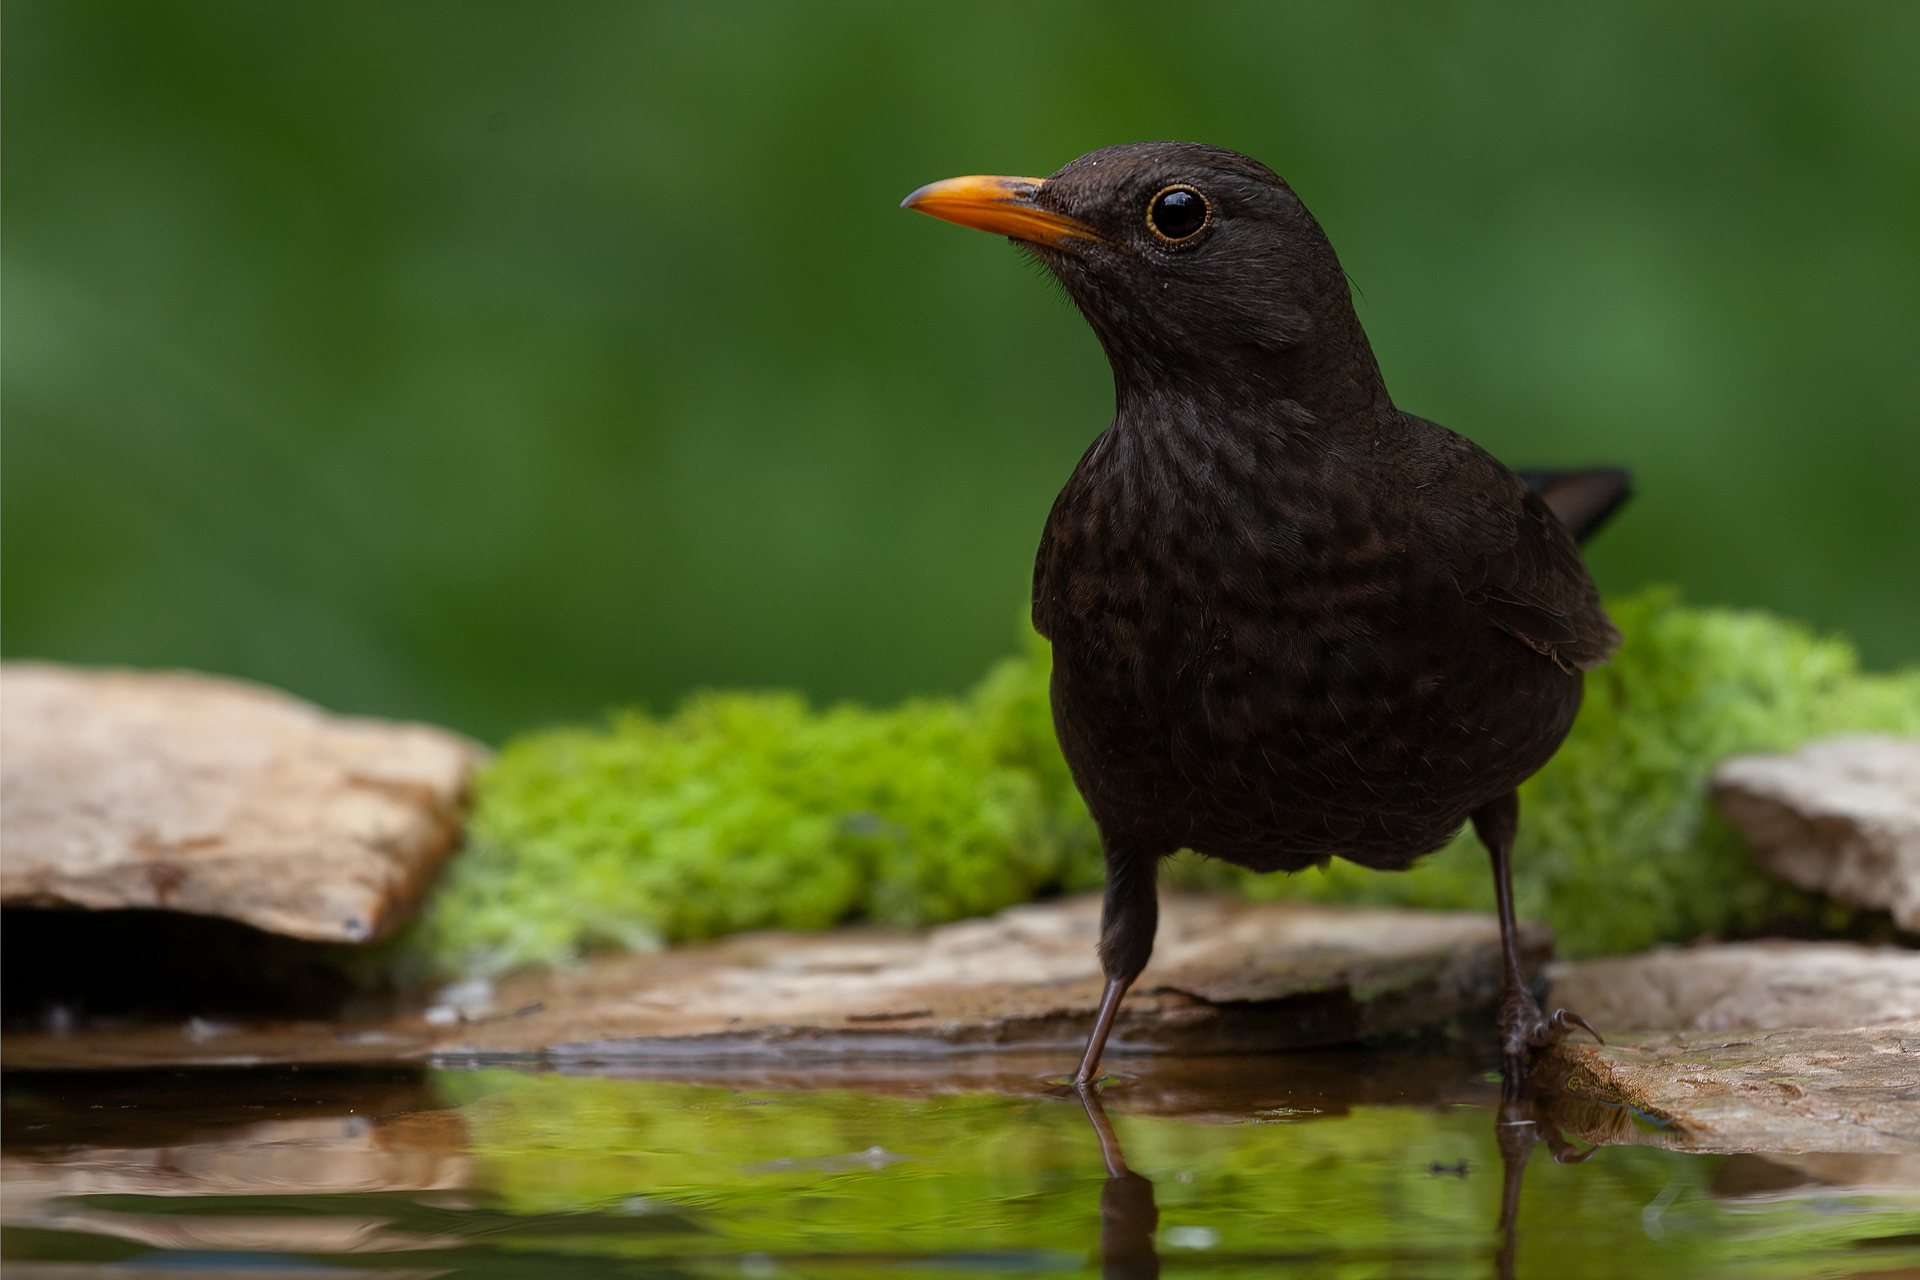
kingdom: Animalia
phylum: Chordata
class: Aves
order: Passeriformes
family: Turdidae
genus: Turdus
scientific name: Turdus merula
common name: Common blackbird
